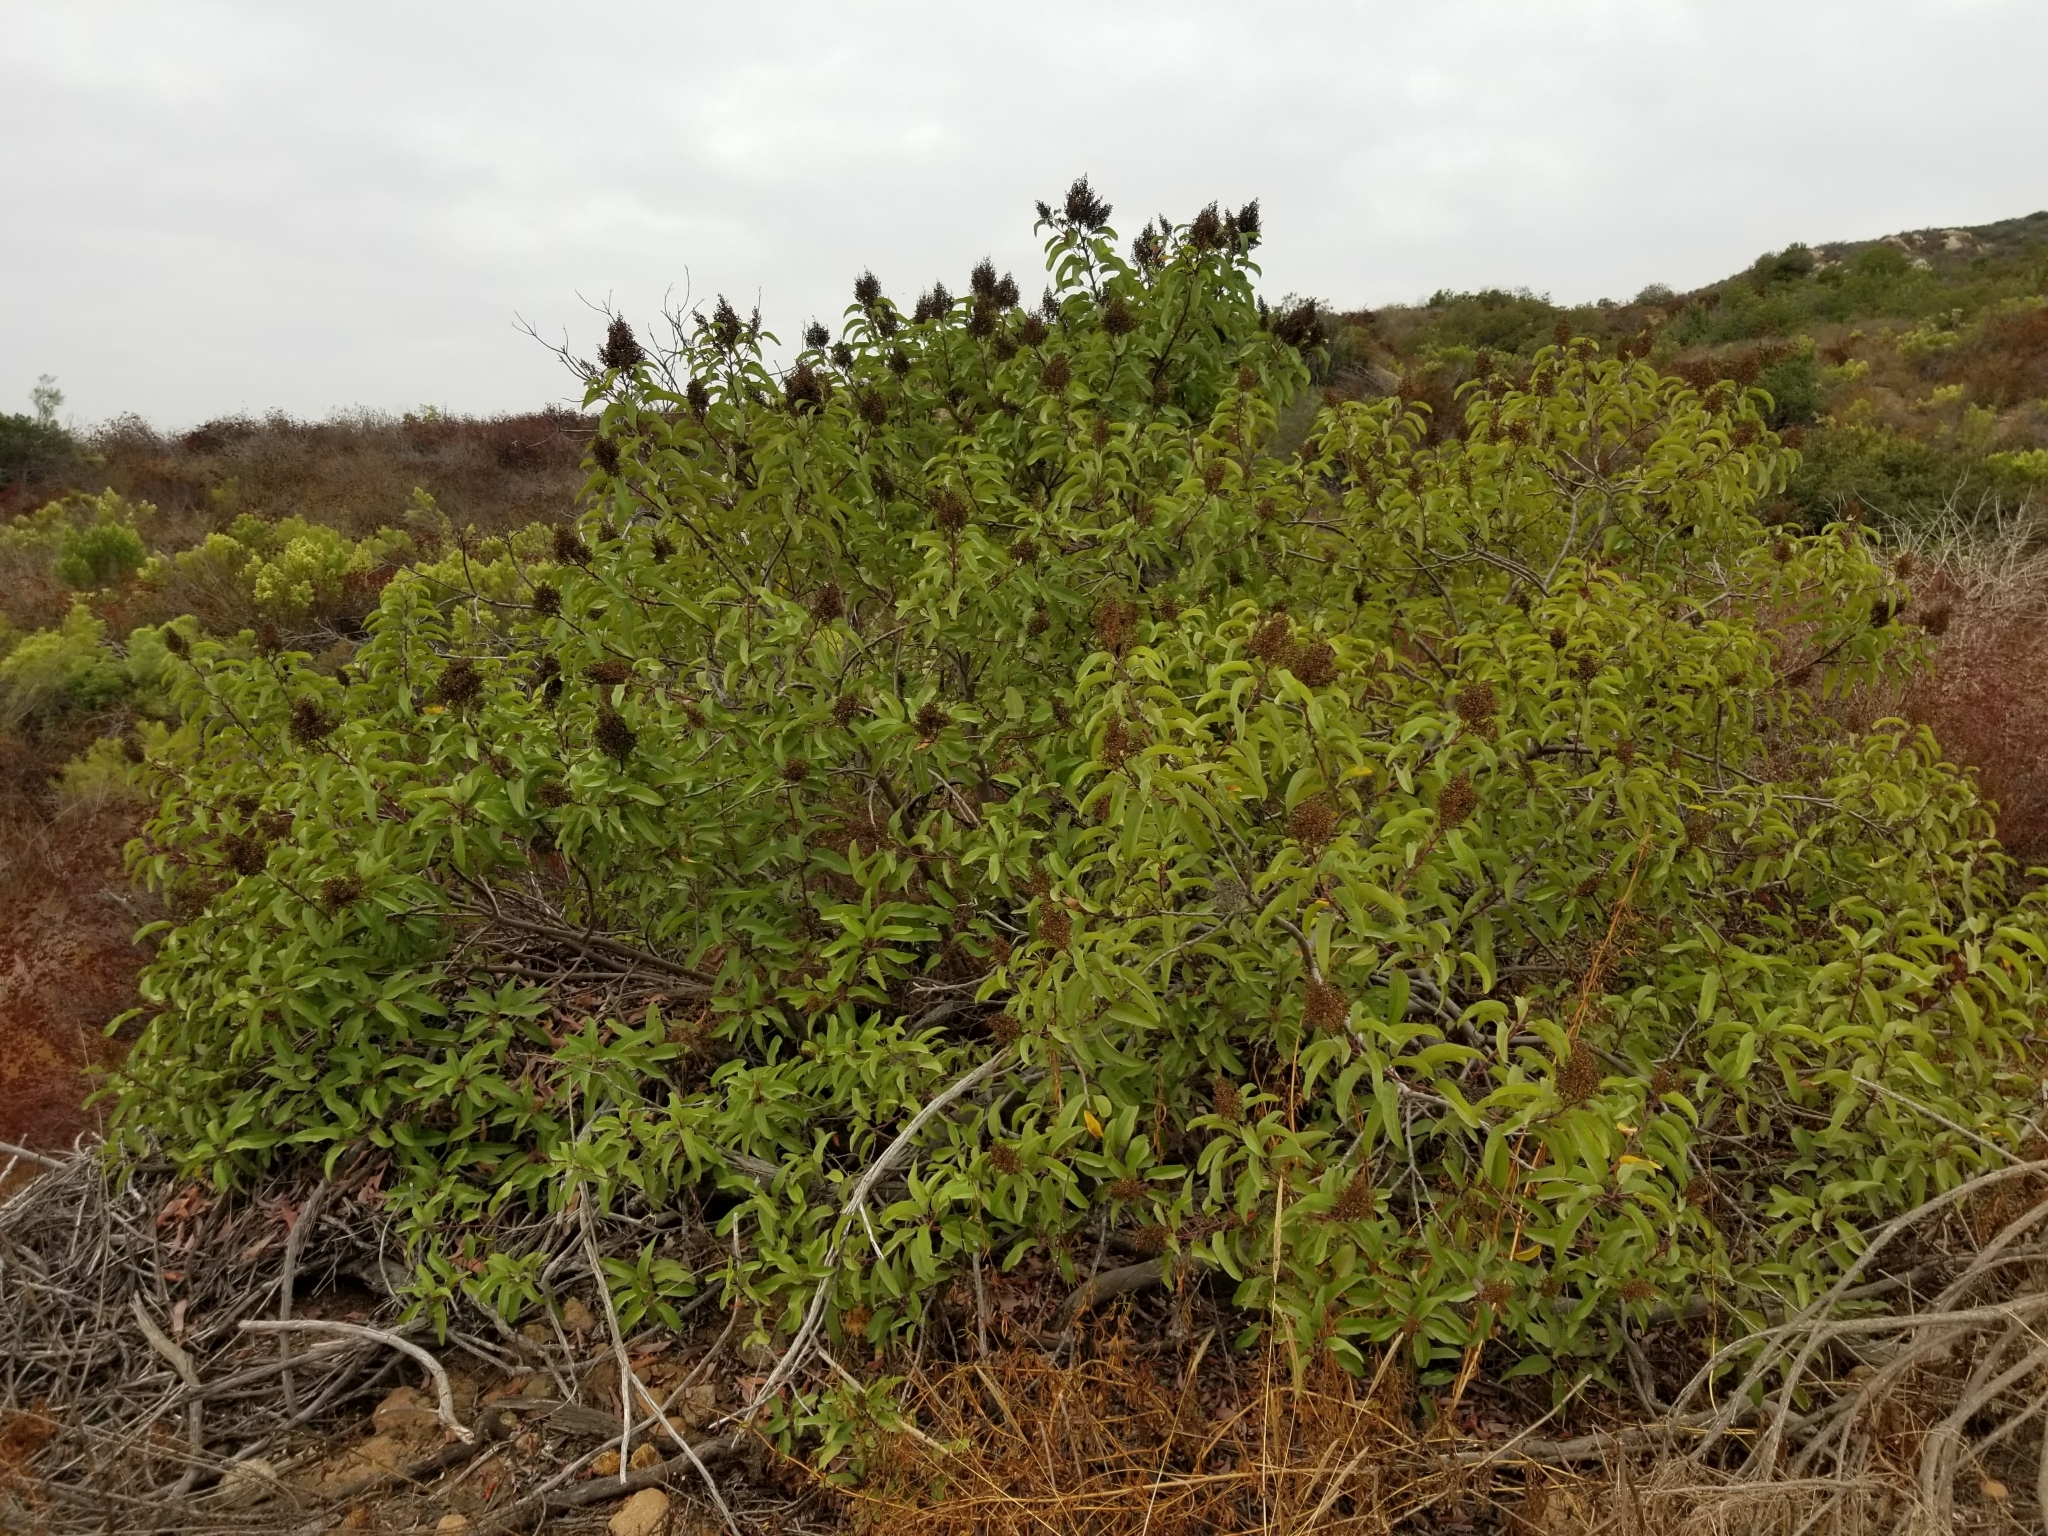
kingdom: Plantae
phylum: Tracheophyta
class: Magnoliopsida
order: Sapindales
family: Anacardiaceae
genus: Malosma
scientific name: Malosma laurina
